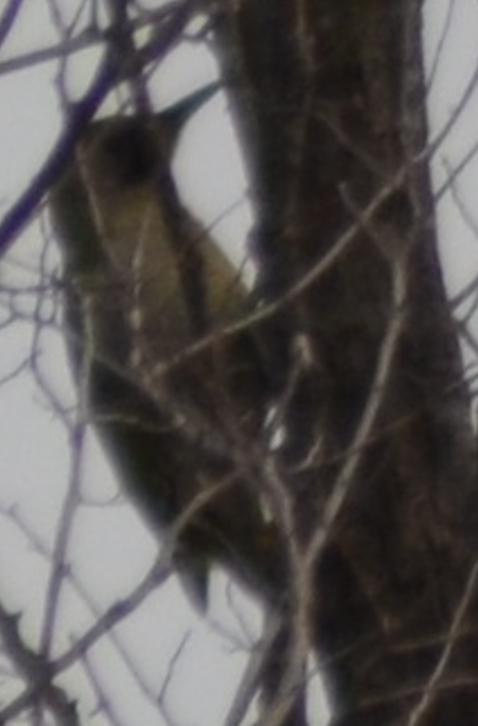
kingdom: Animalia
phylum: Chordata
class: Aves
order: Piciformes
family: Picidae
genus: Picus
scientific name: Picus sharpei
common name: Iberian green woodpecker
